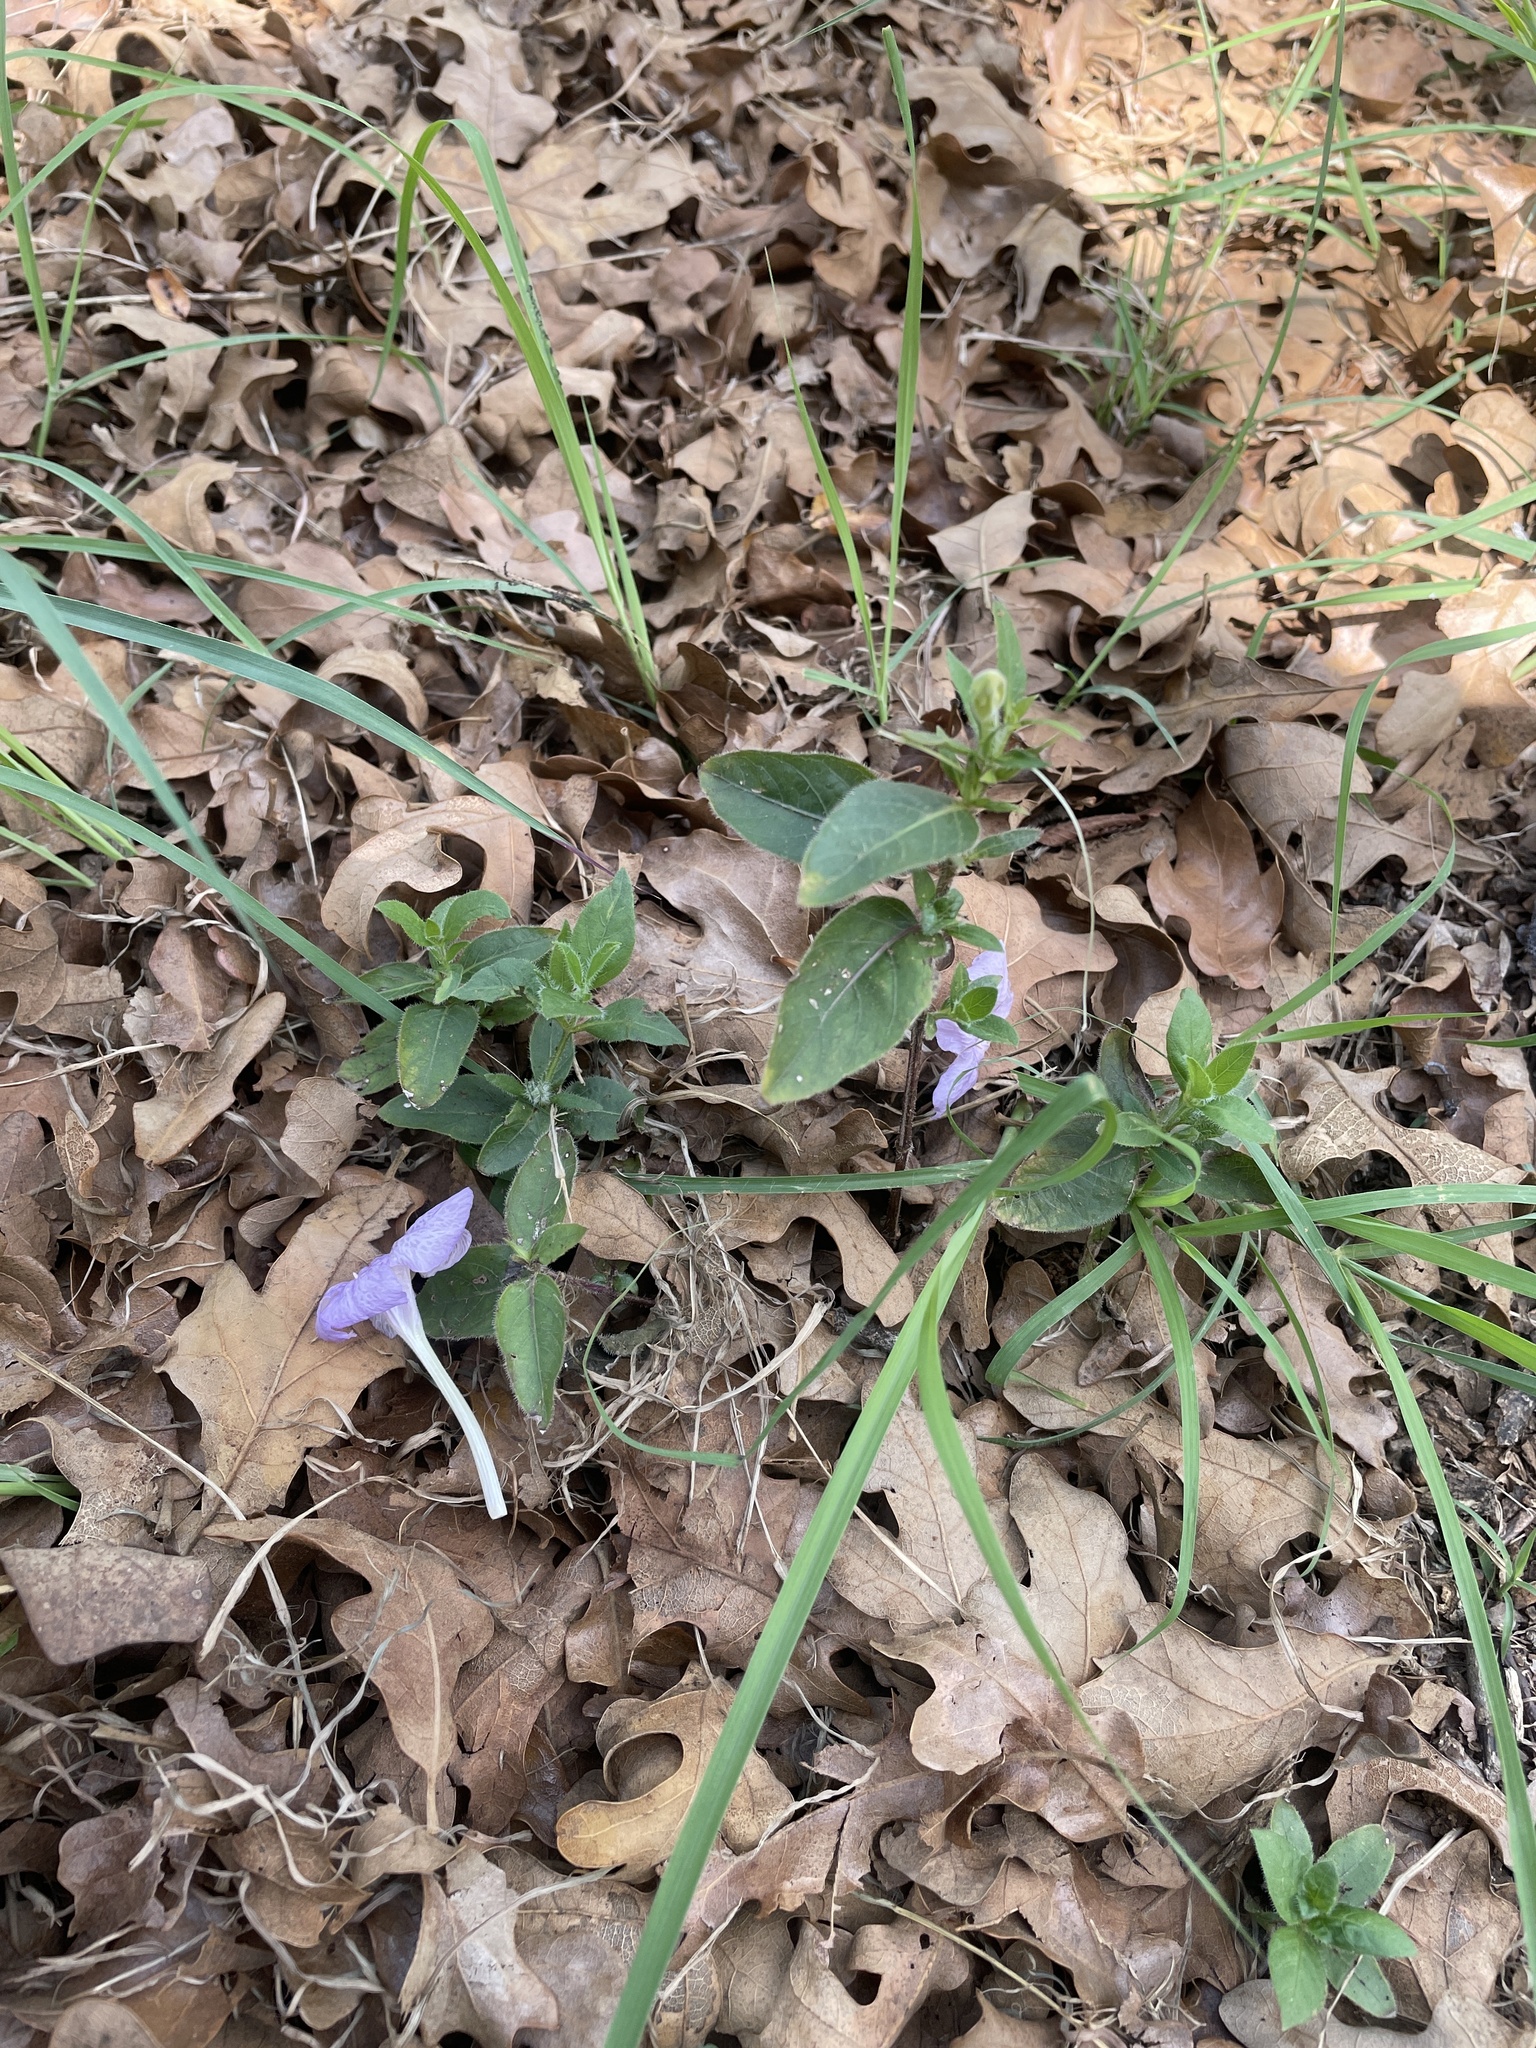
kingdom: Plantae
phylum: Tracheophyta
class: Magnoliopsida
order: Lamiales
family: Acanthaceae
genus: Ruellia
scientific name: Ruellia humilis
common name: Fringe-leaf ruellia
